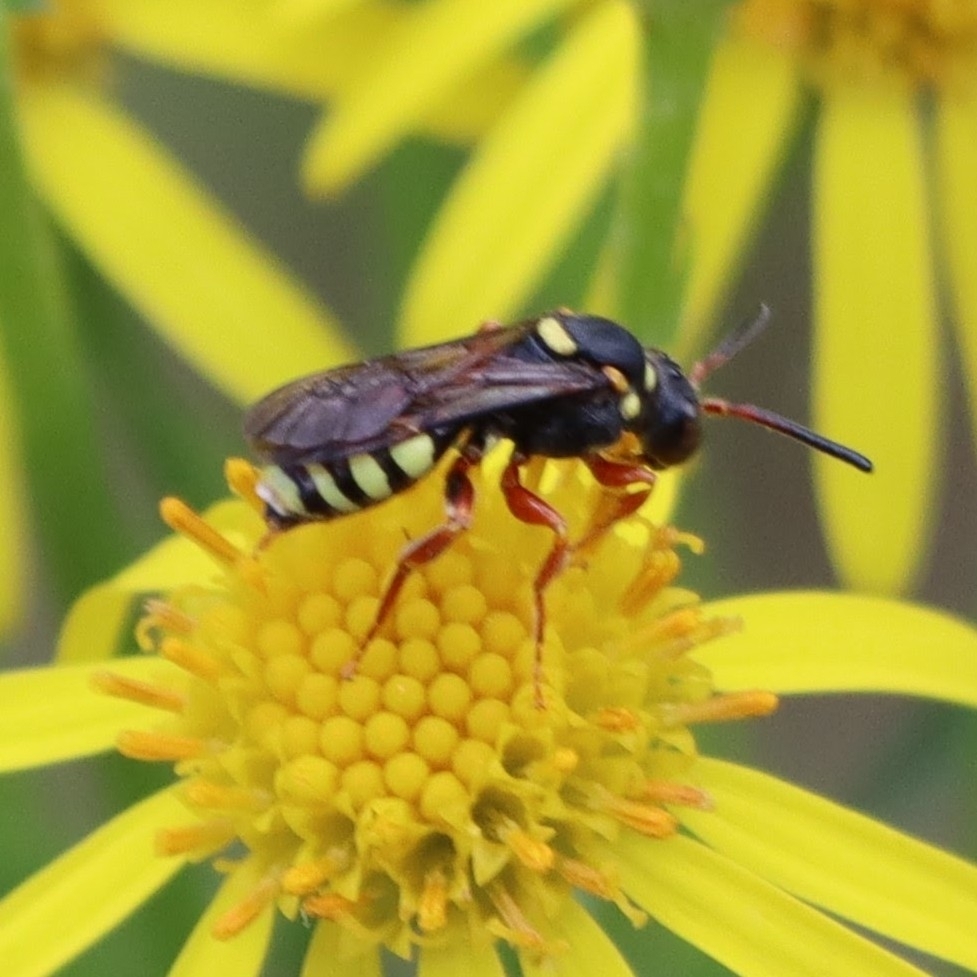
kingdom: Animalia
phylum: Arthropoda
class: Insecta
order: Hymenoptera
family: Apidae
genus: Nomada
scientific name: Nomada rufipes
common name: Black-horned nomad bee
